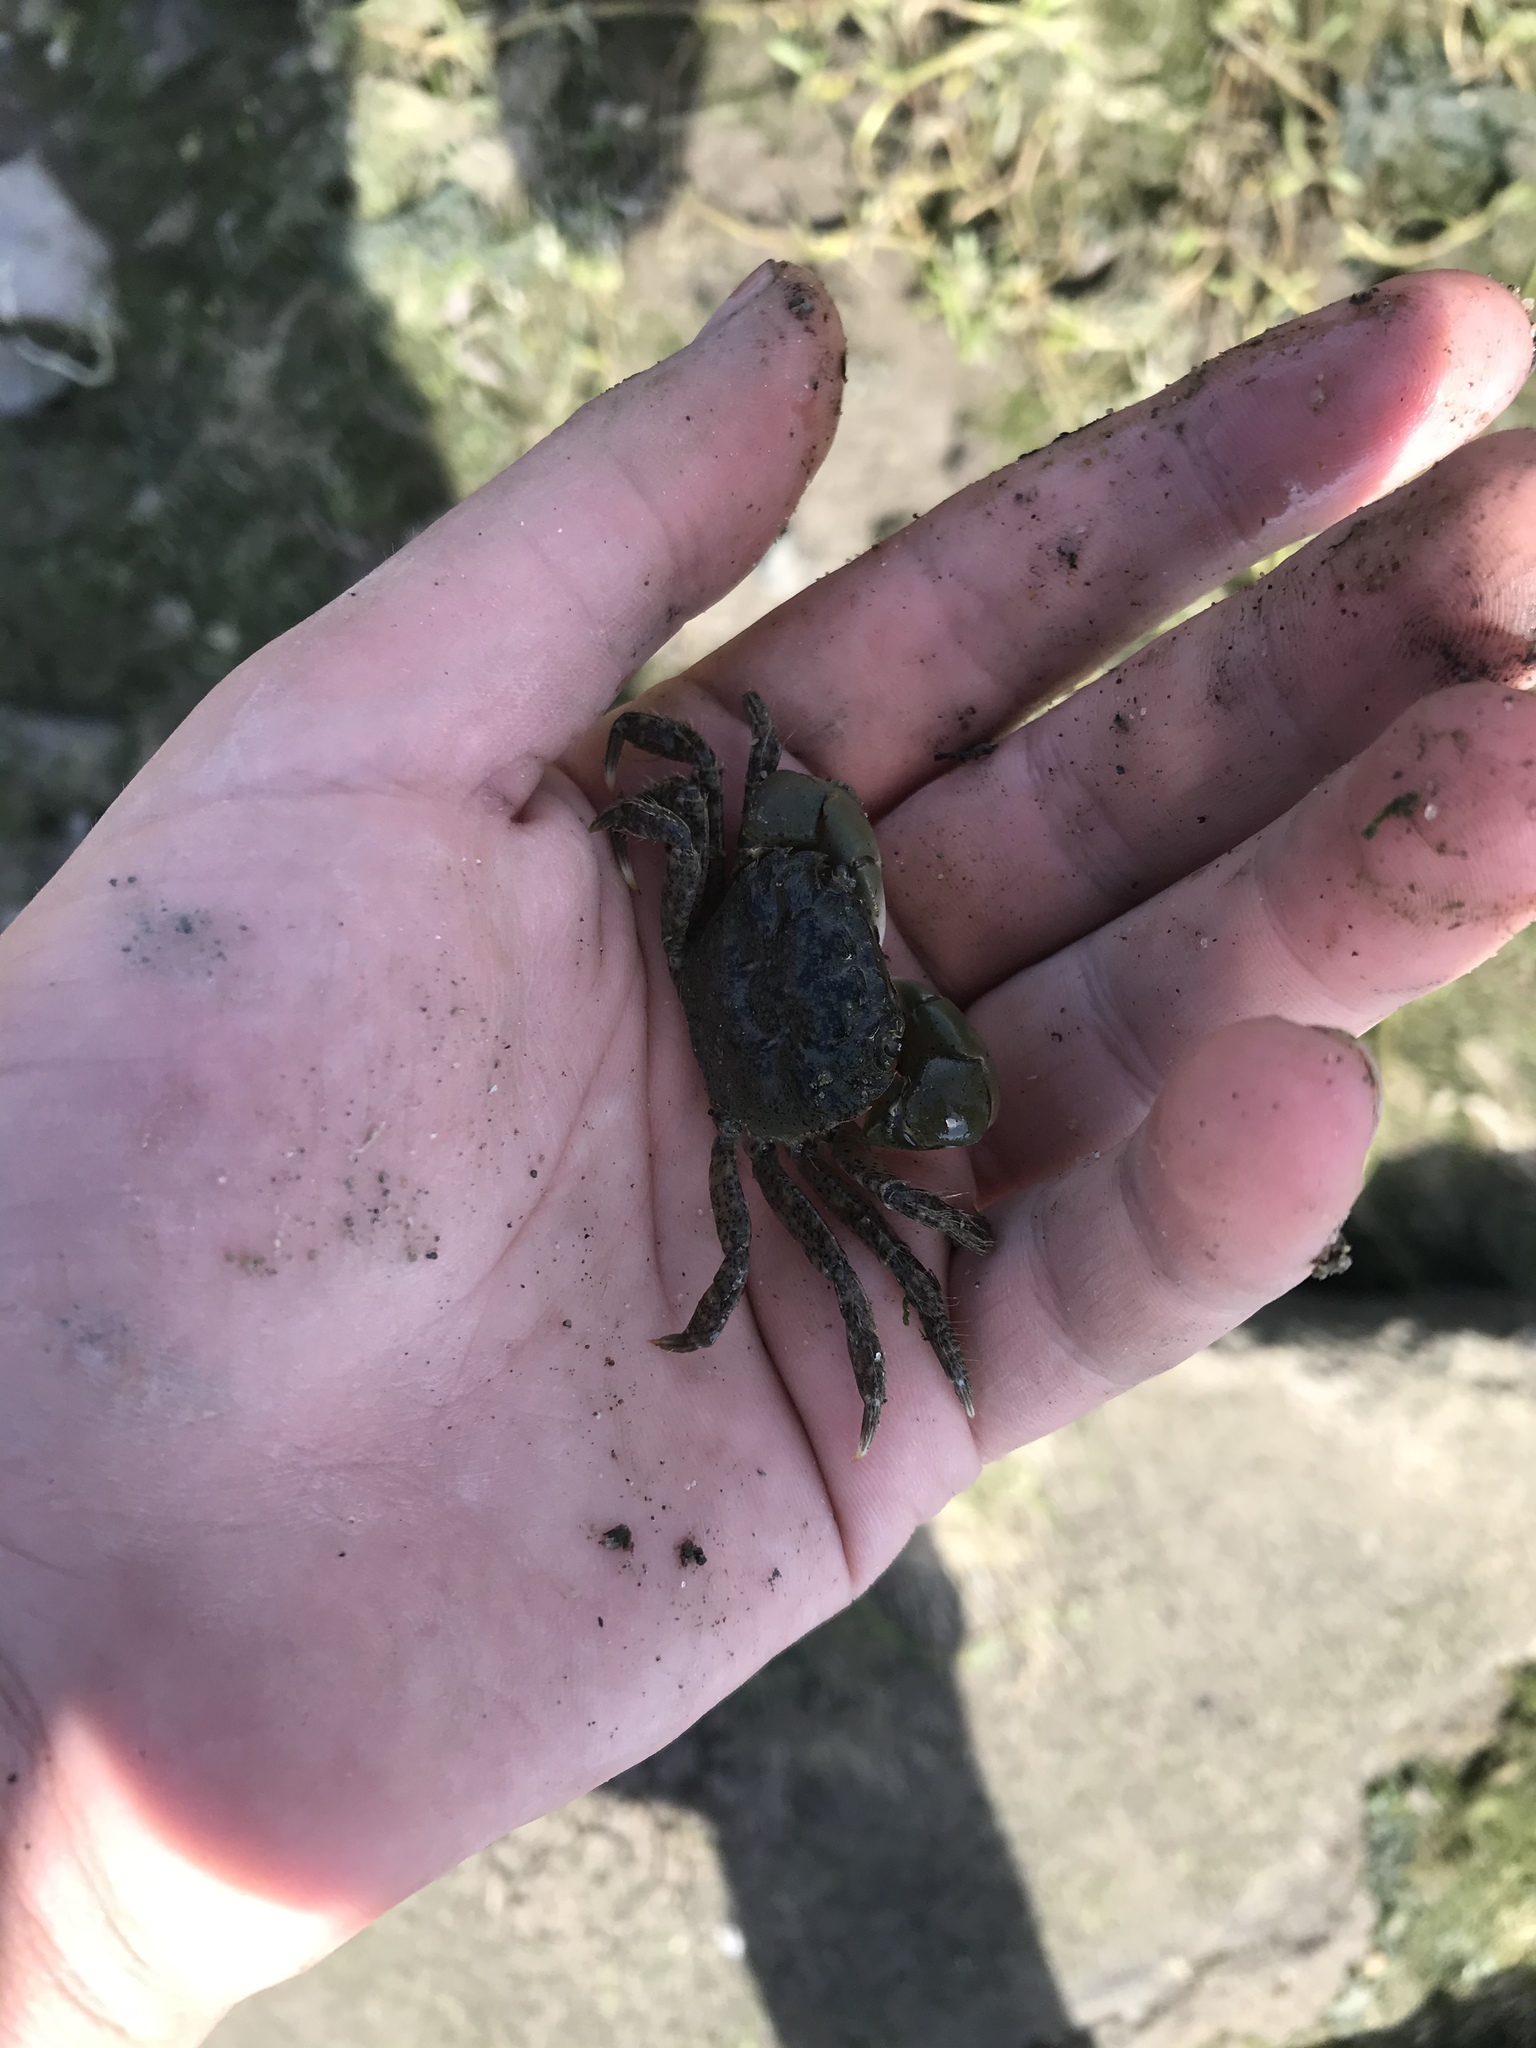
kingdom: Animalia
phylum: Arthropoda
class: Malacostraca
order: Decapoda
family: Varunidae
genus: Hemigrapsus
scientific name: Hemigrapsus oregonensis
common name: Yellow shore crab
